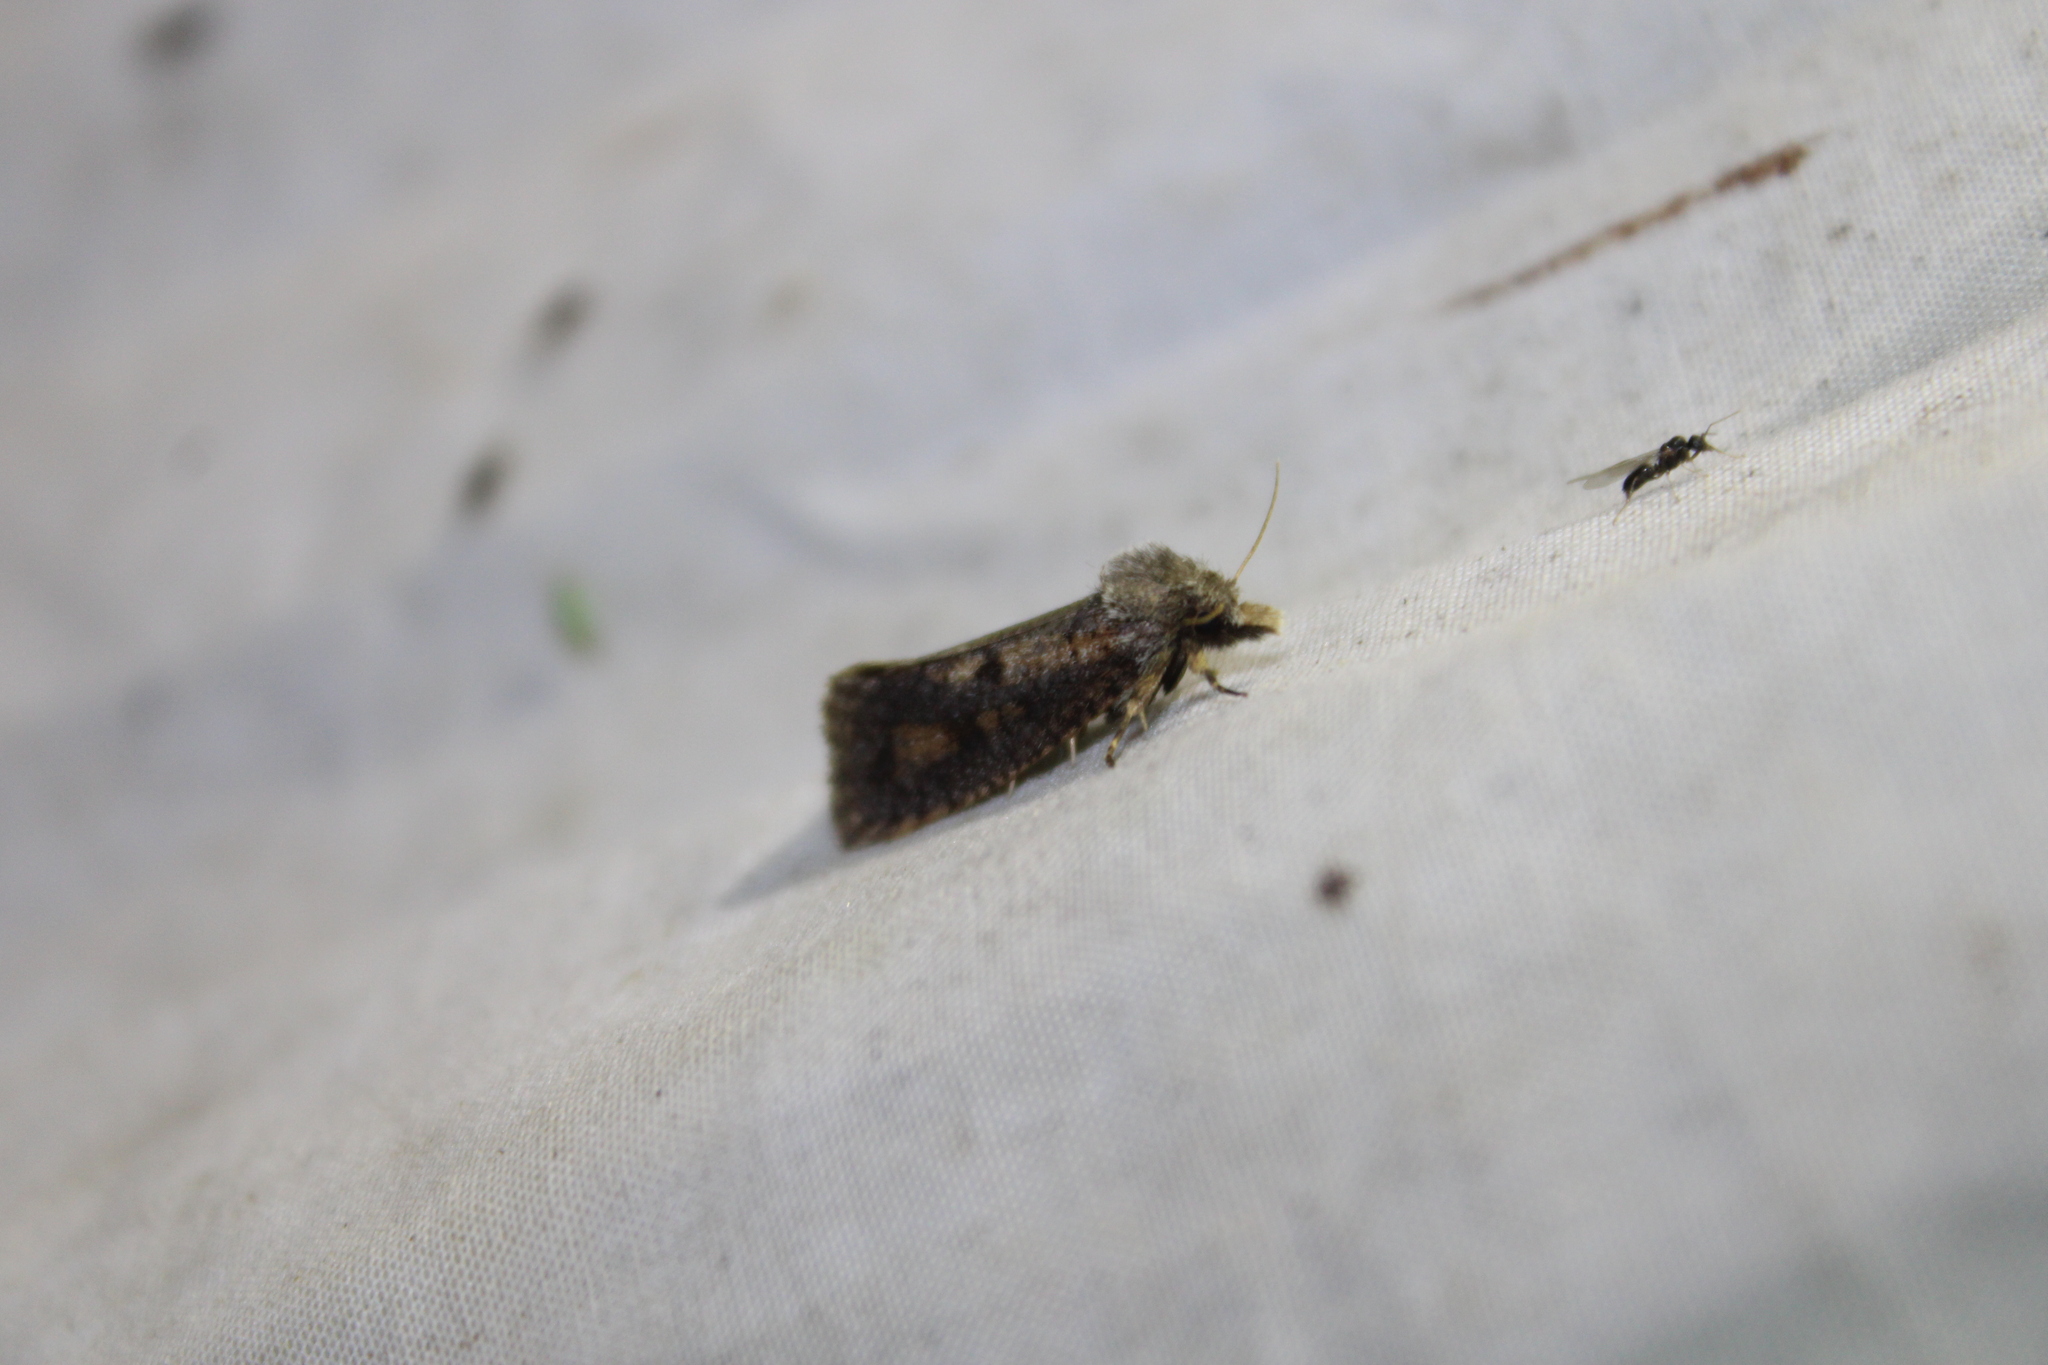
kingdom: Animalia
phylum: Arthropoda
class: Insecta
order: Lepidoptera
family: Tineidae
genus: Acrolophus
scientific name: Acrolophus popeanella
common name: Clemens' grass tubeworm moth
